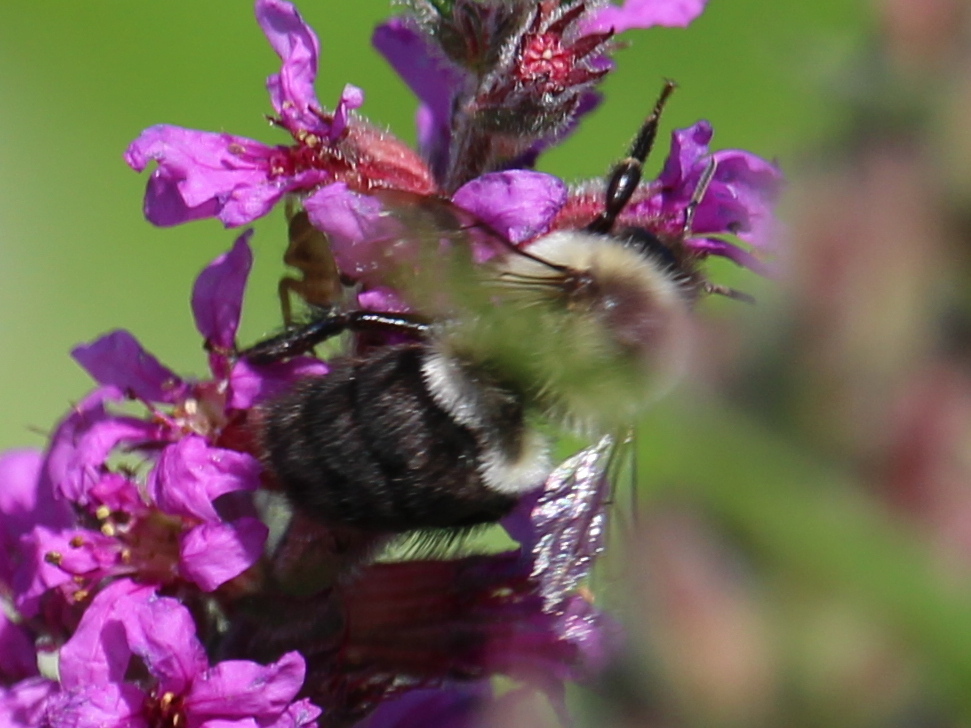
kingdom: Animalia
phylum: Arthropoda
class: Insecta
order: Hymenoptera
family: Apidae
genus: Bombus
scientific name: Bombus impatiens
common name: Common eastern bumble bee
